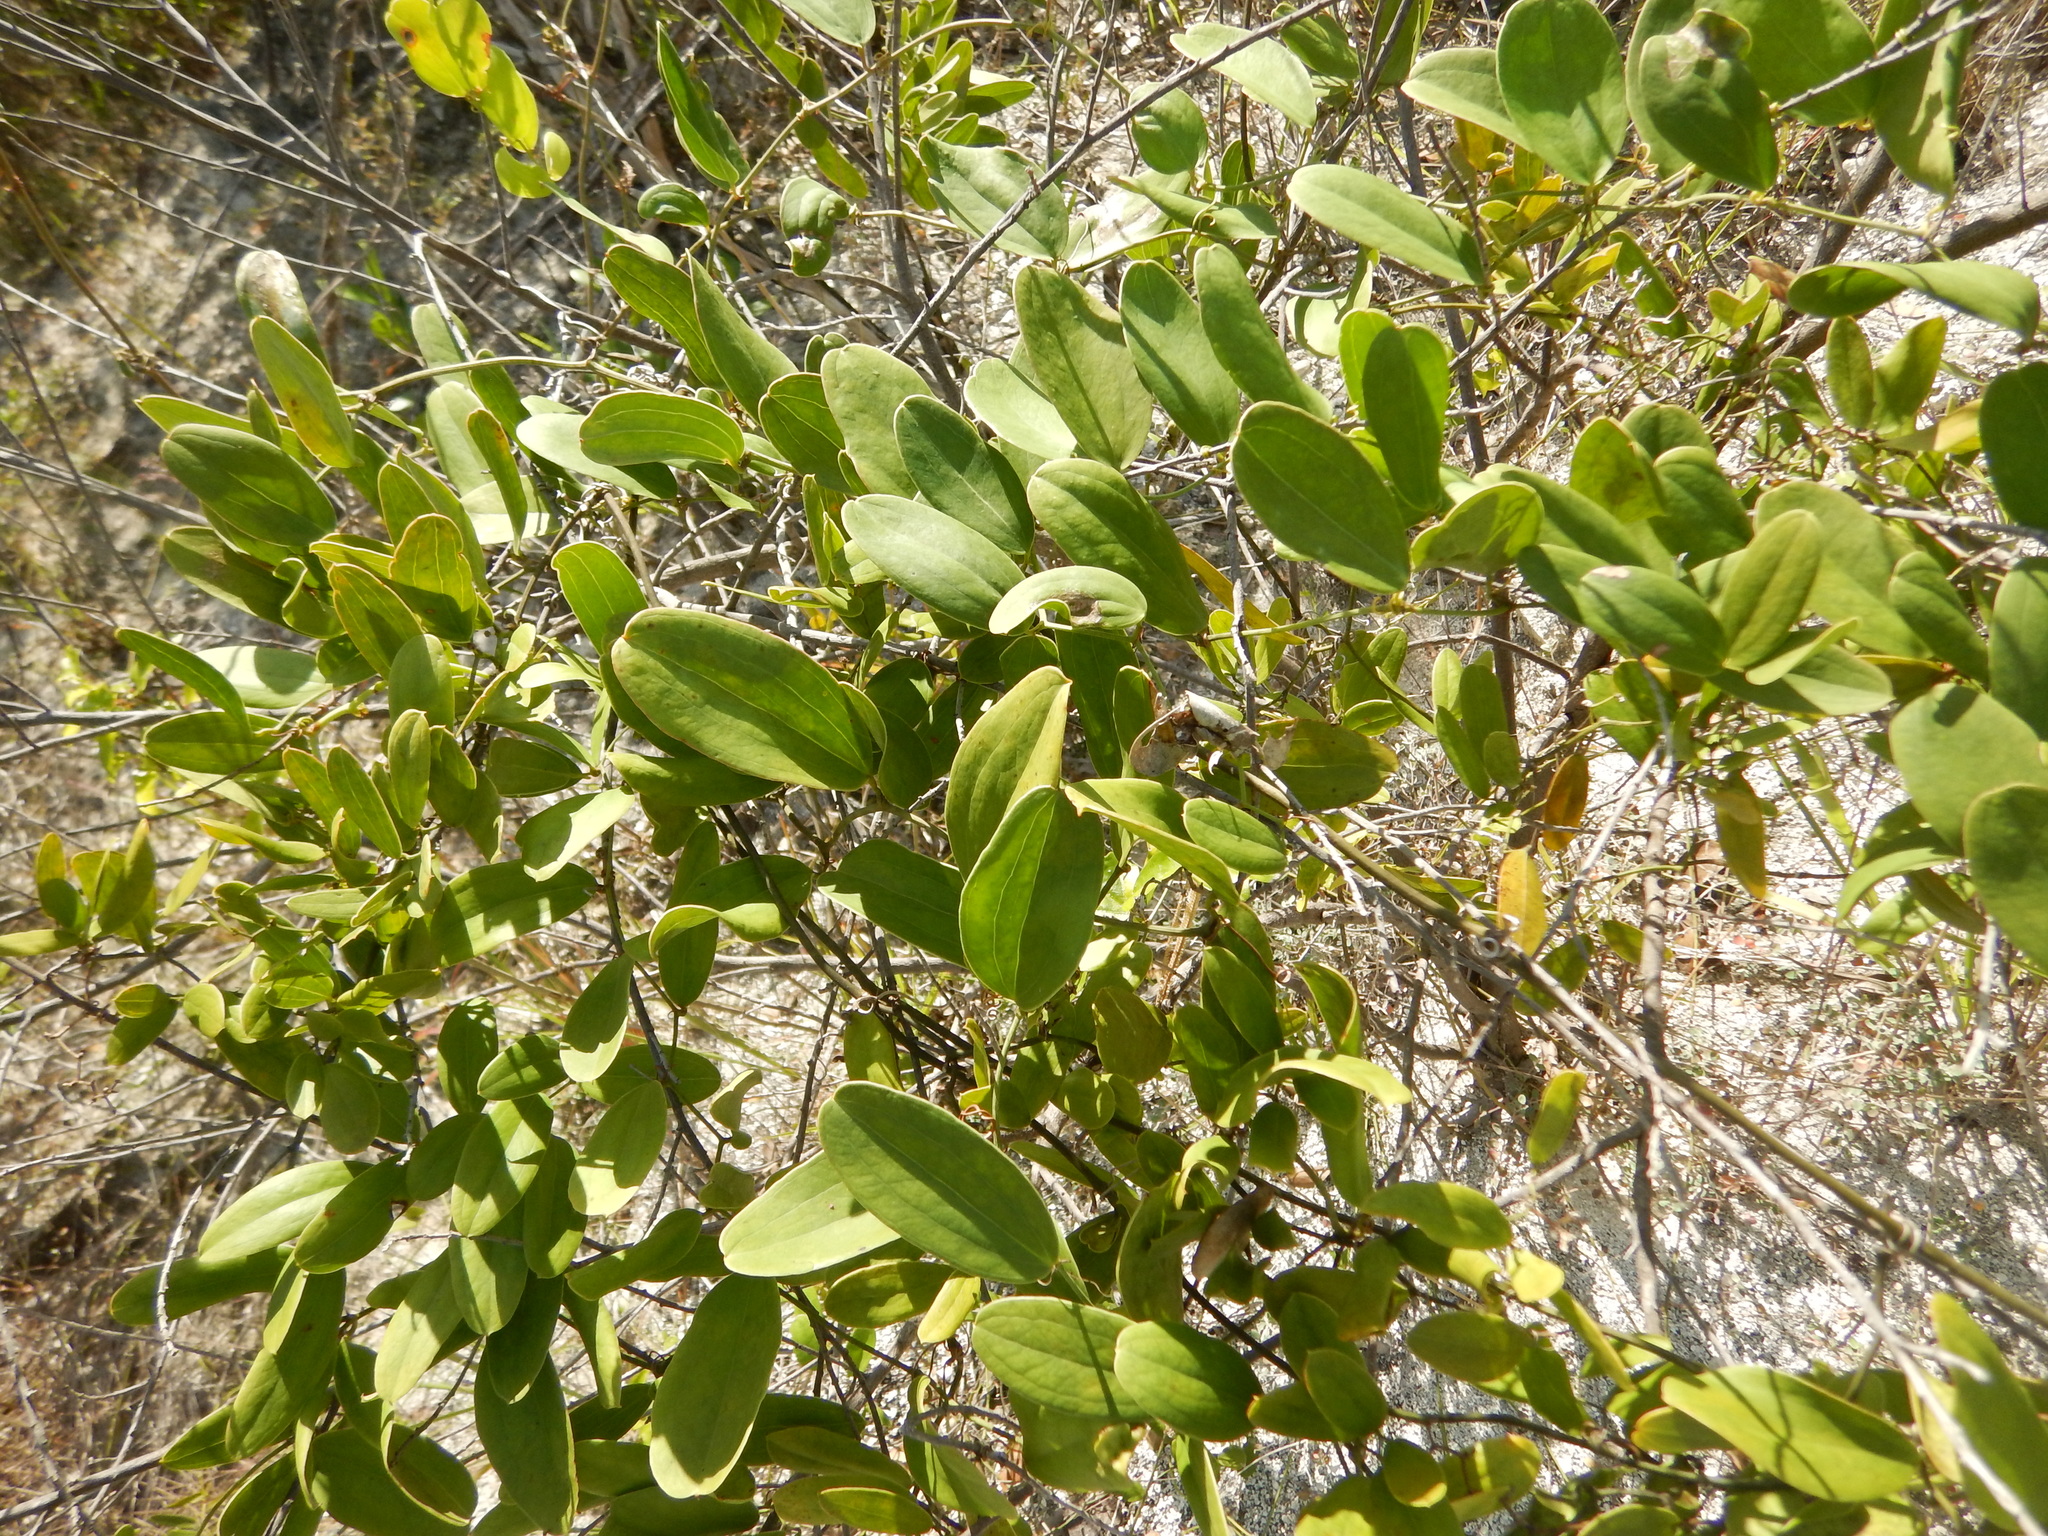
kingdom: Plantae
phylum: Tracheophyta
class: Liliopsida
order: Liliales
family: Smilacaceae
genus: Smilax
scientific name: Smilax laurifolia
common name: Bamboovine
